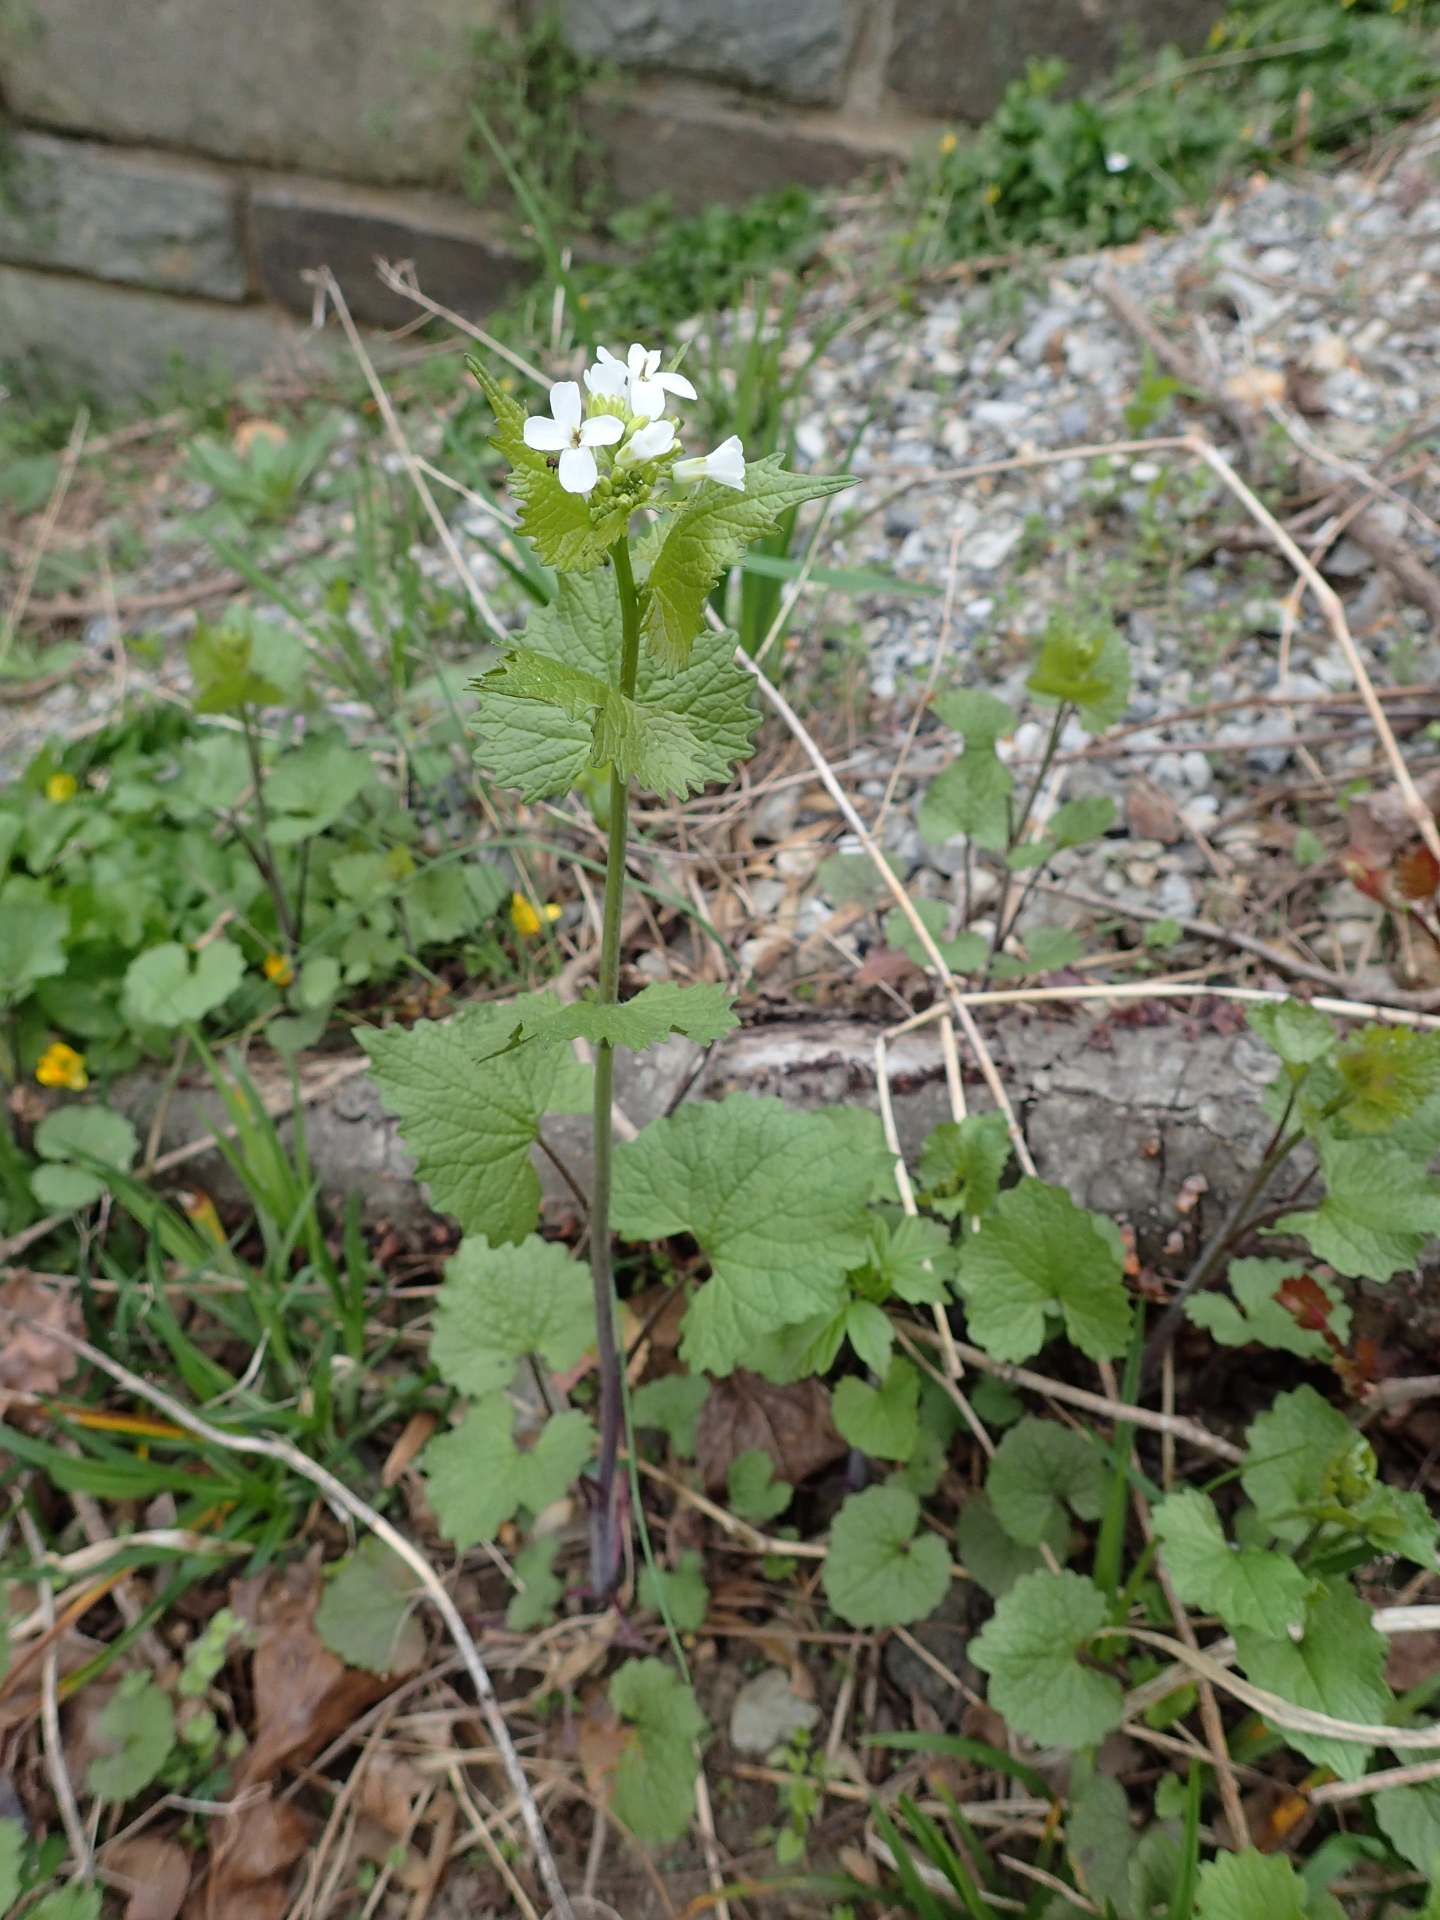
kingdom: Plantae
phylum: Tracheophyta
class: Magnoliopsida
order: Brassicales
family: Brassicaceae
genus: Alliaria
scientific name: Alliaria petiolata
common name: Garlic mustard
